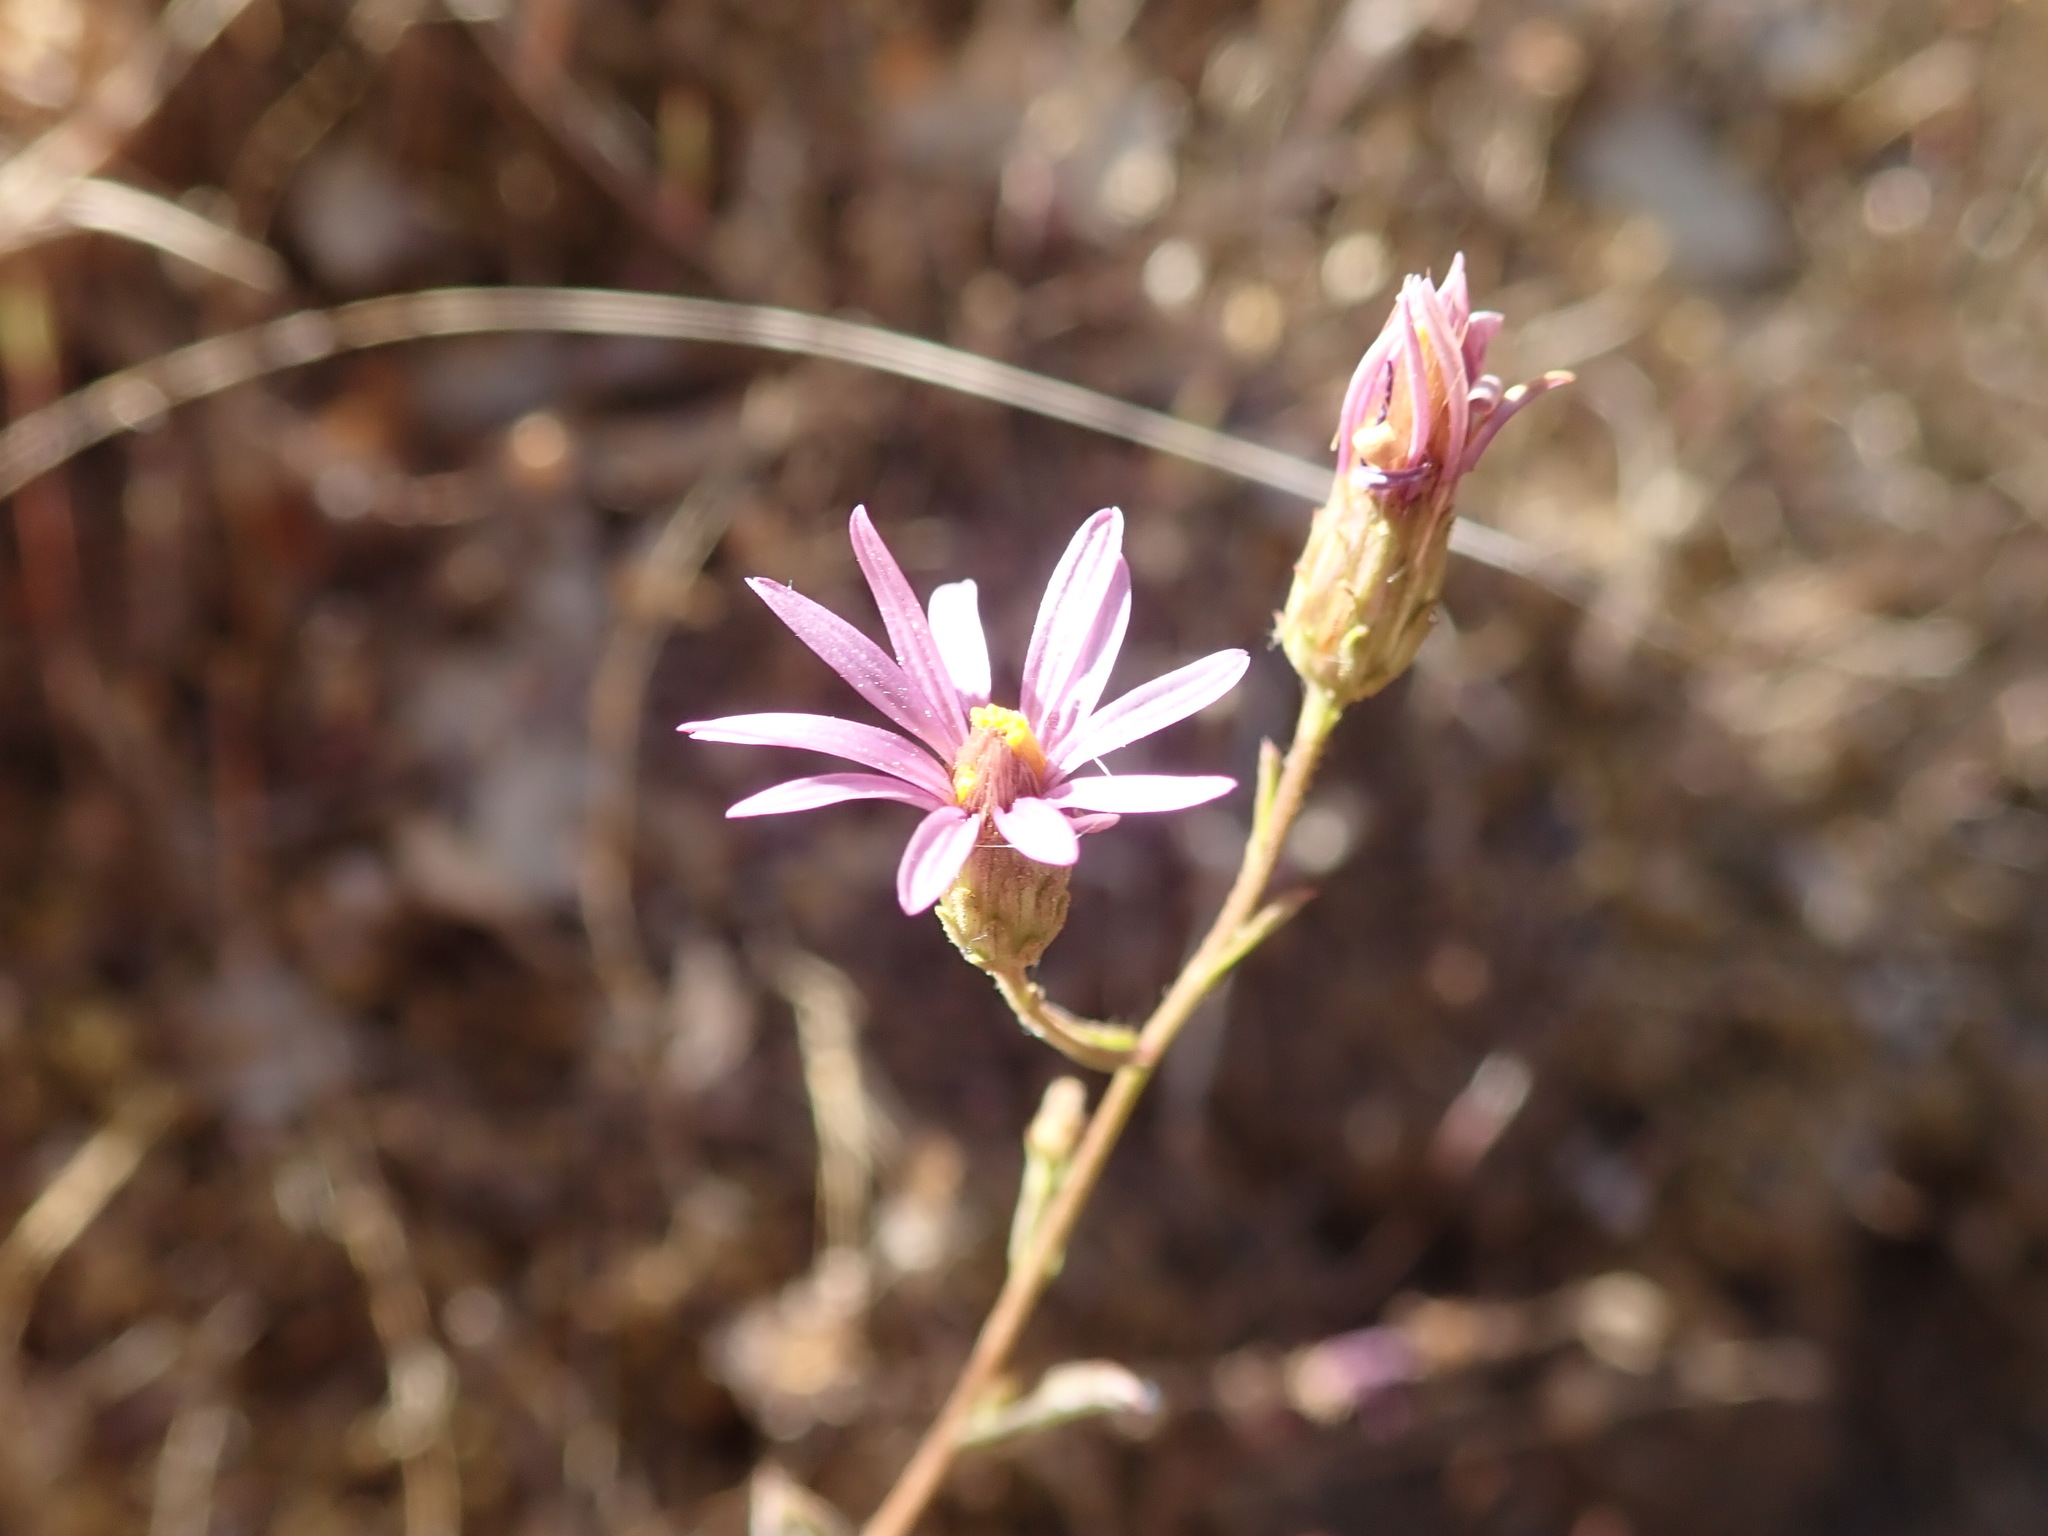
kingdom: Plantae
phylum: Tracheophyta
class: Magnoliopsida
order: Asterales
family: Asteraceae
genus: Corethrogyne
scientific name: Corethrogyne filaginifolia
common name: Sand-aster
